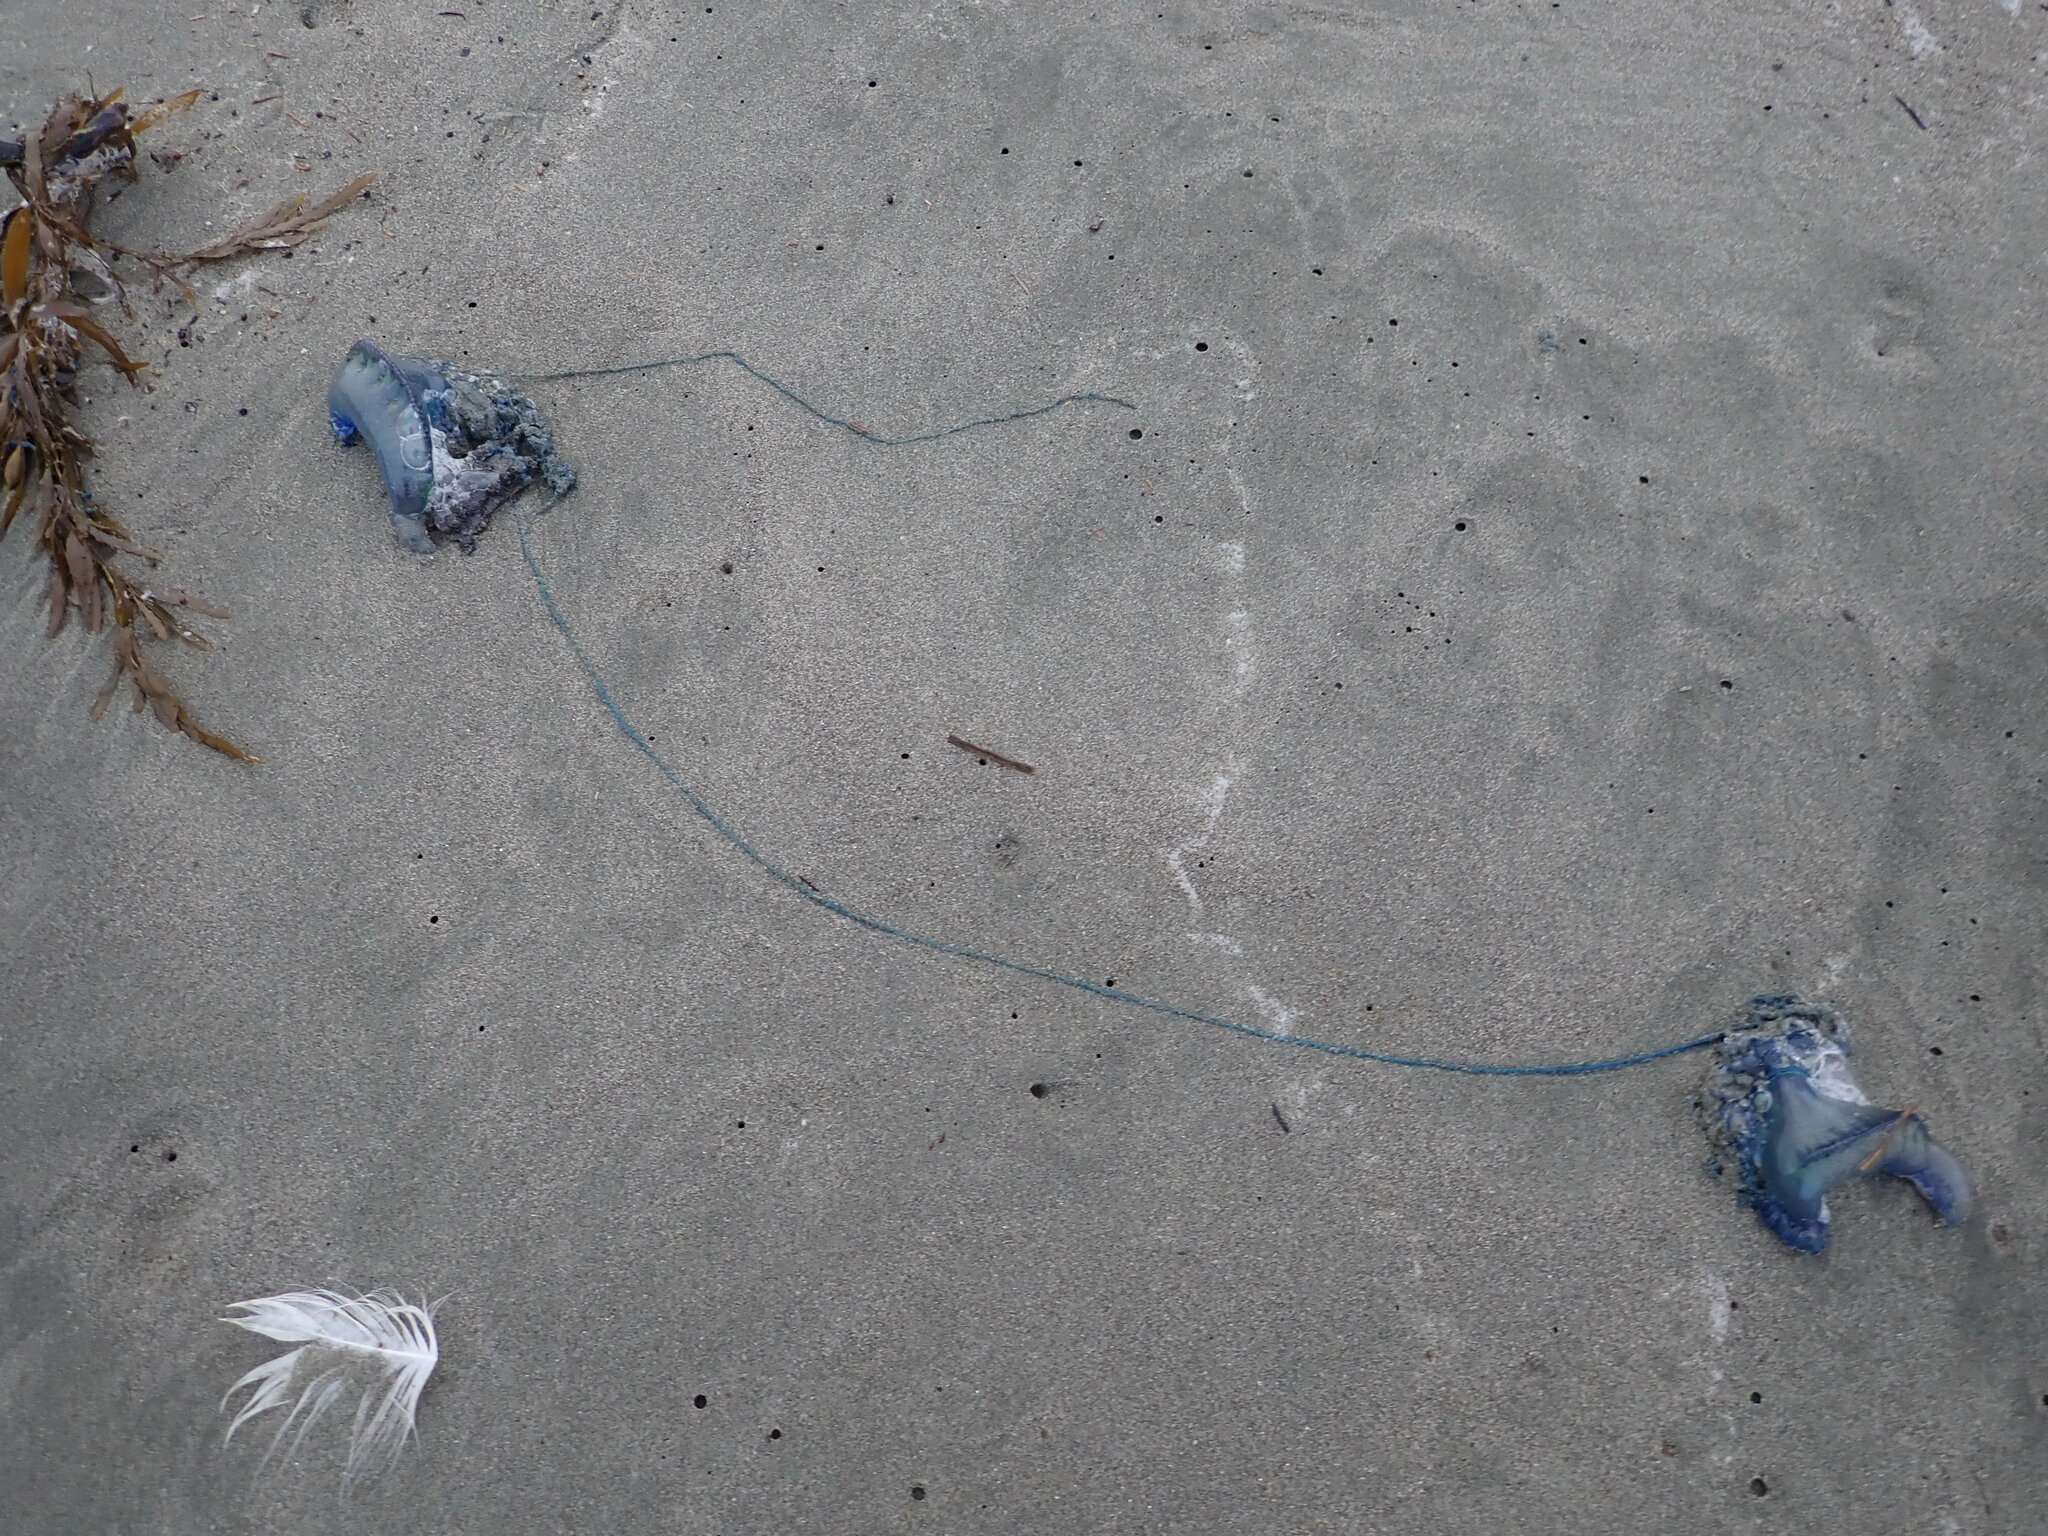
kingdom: Animalia
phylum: Cnidaria
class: Hydrozoa
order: Siphonophorae
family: Physaliidae
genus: Physalia
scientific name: Physalia physalis
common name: Portuguese man-of-war
